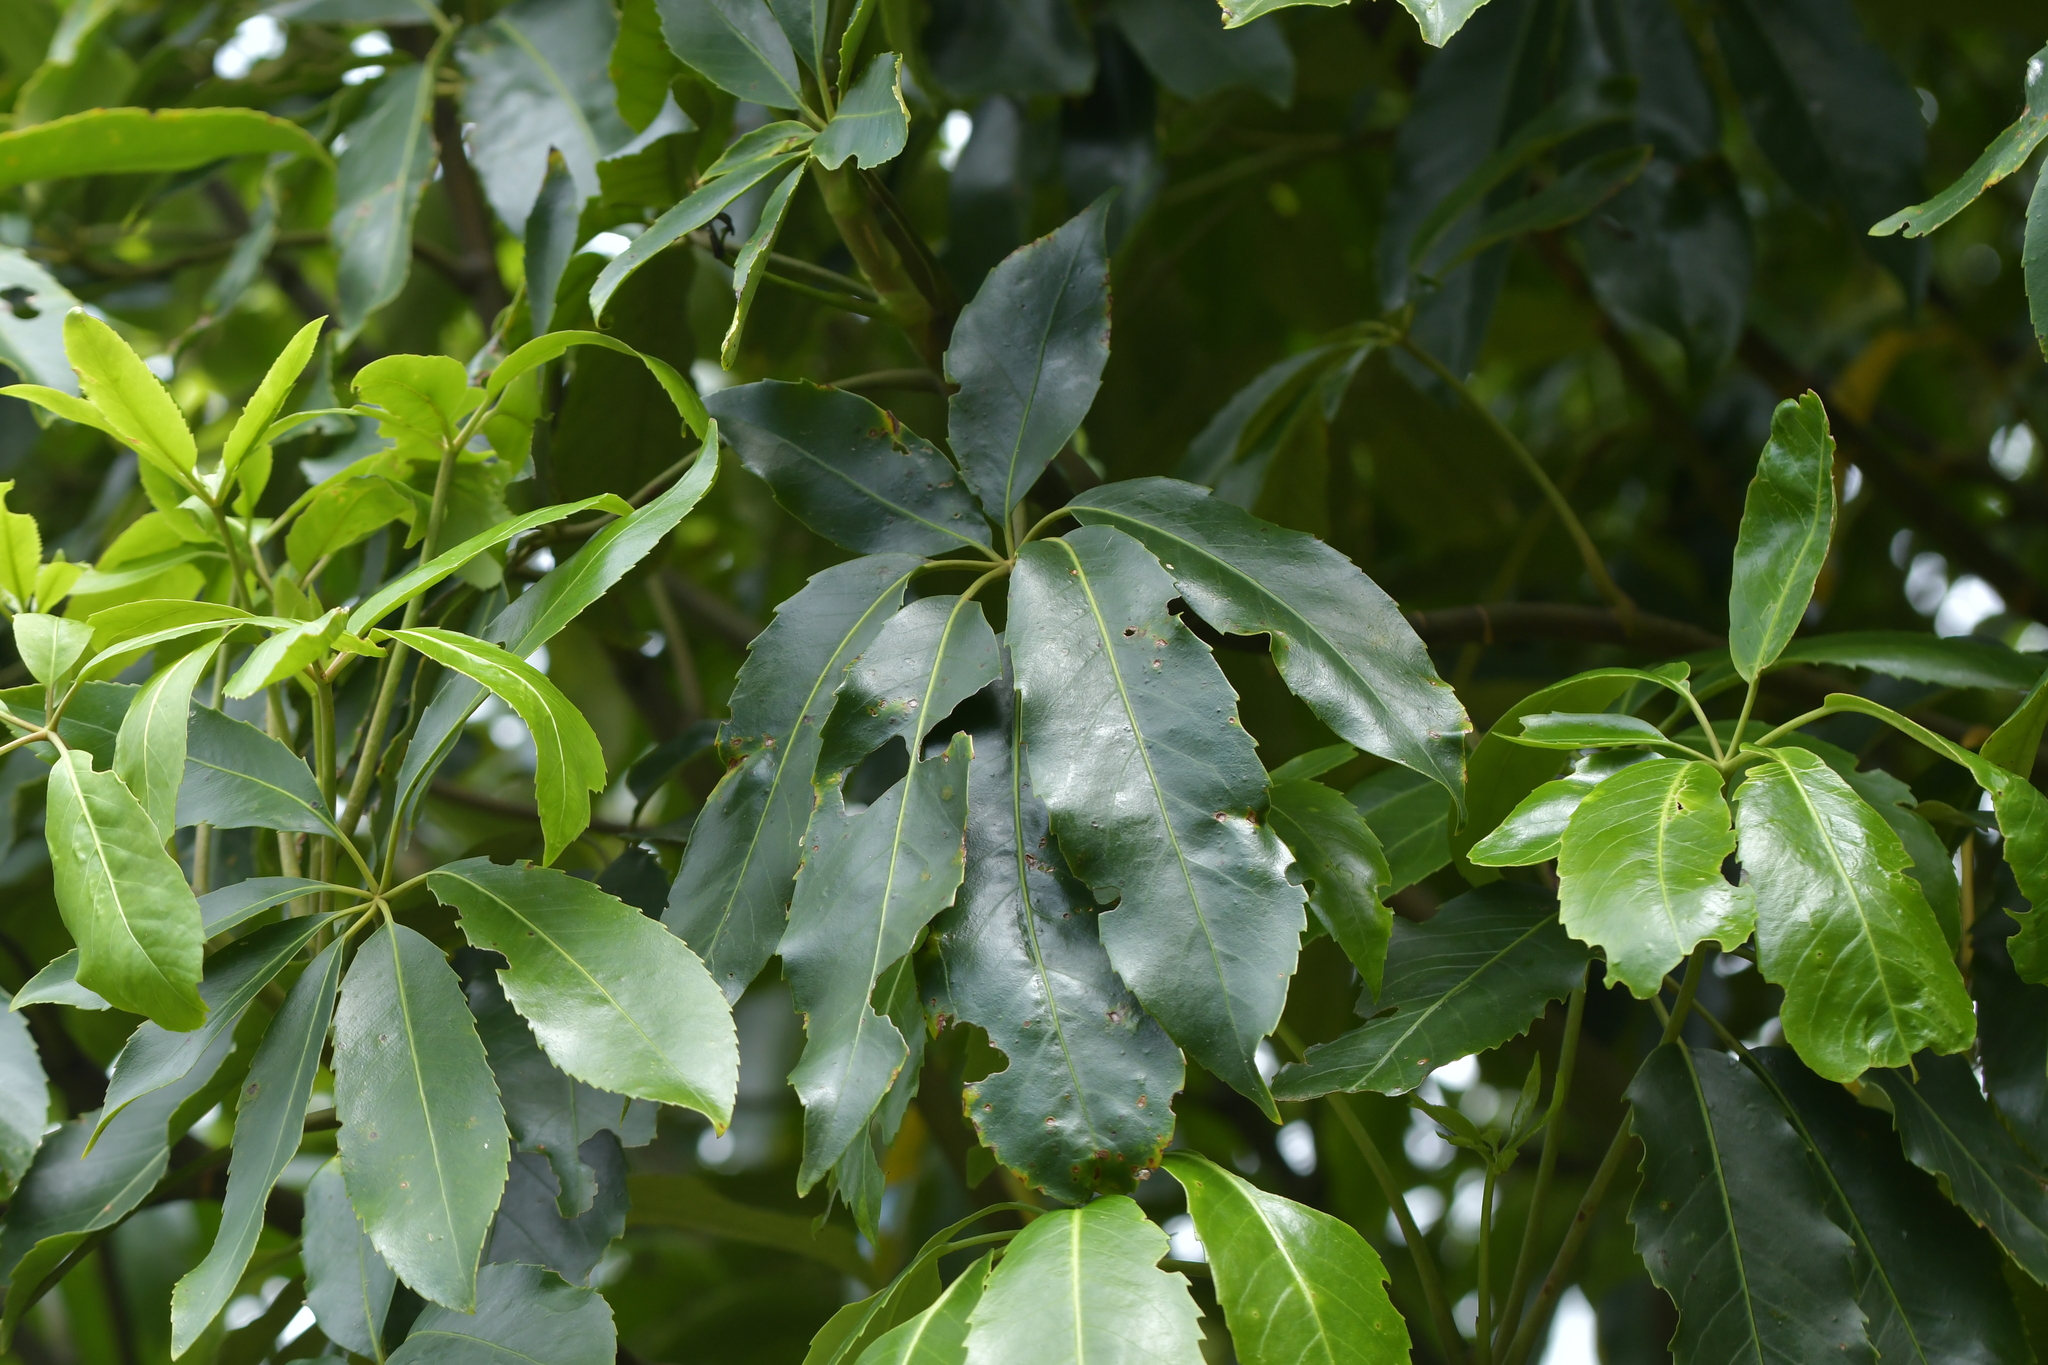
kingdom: Plantae
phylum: Tracheophyta
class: Magnoliopsida
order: Apiales
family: Araliaceae
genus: Neopanax
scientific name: Neopanax arboreus
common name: Five-fingers
